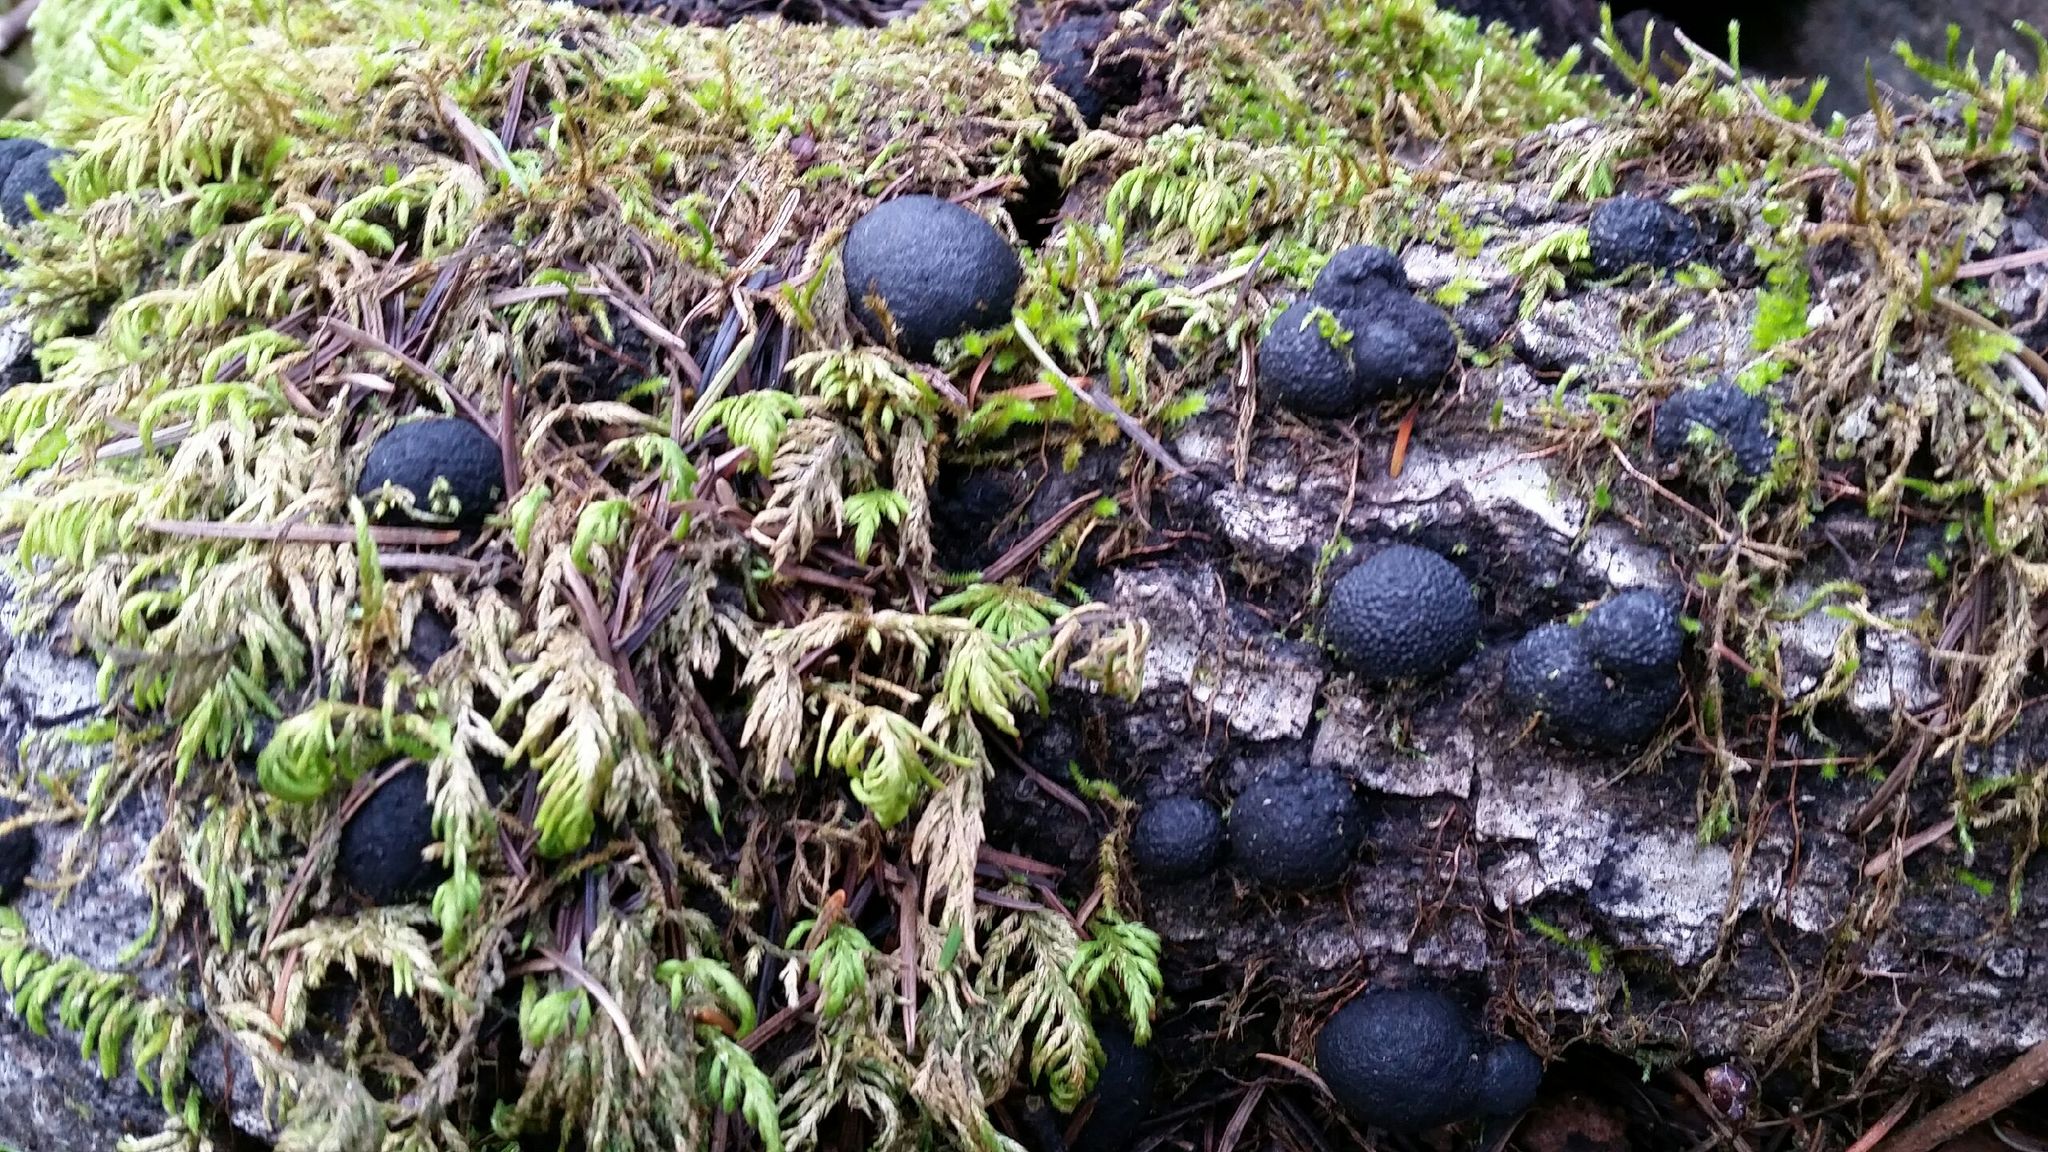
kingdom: Fungi
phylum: Ascomycota
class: Sordariomycetes
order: Xylariales
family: Hypoxylaceae
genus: Annulohypoxylon
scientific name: Annulohypoxylon thouarsianum
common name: Cramp balls
